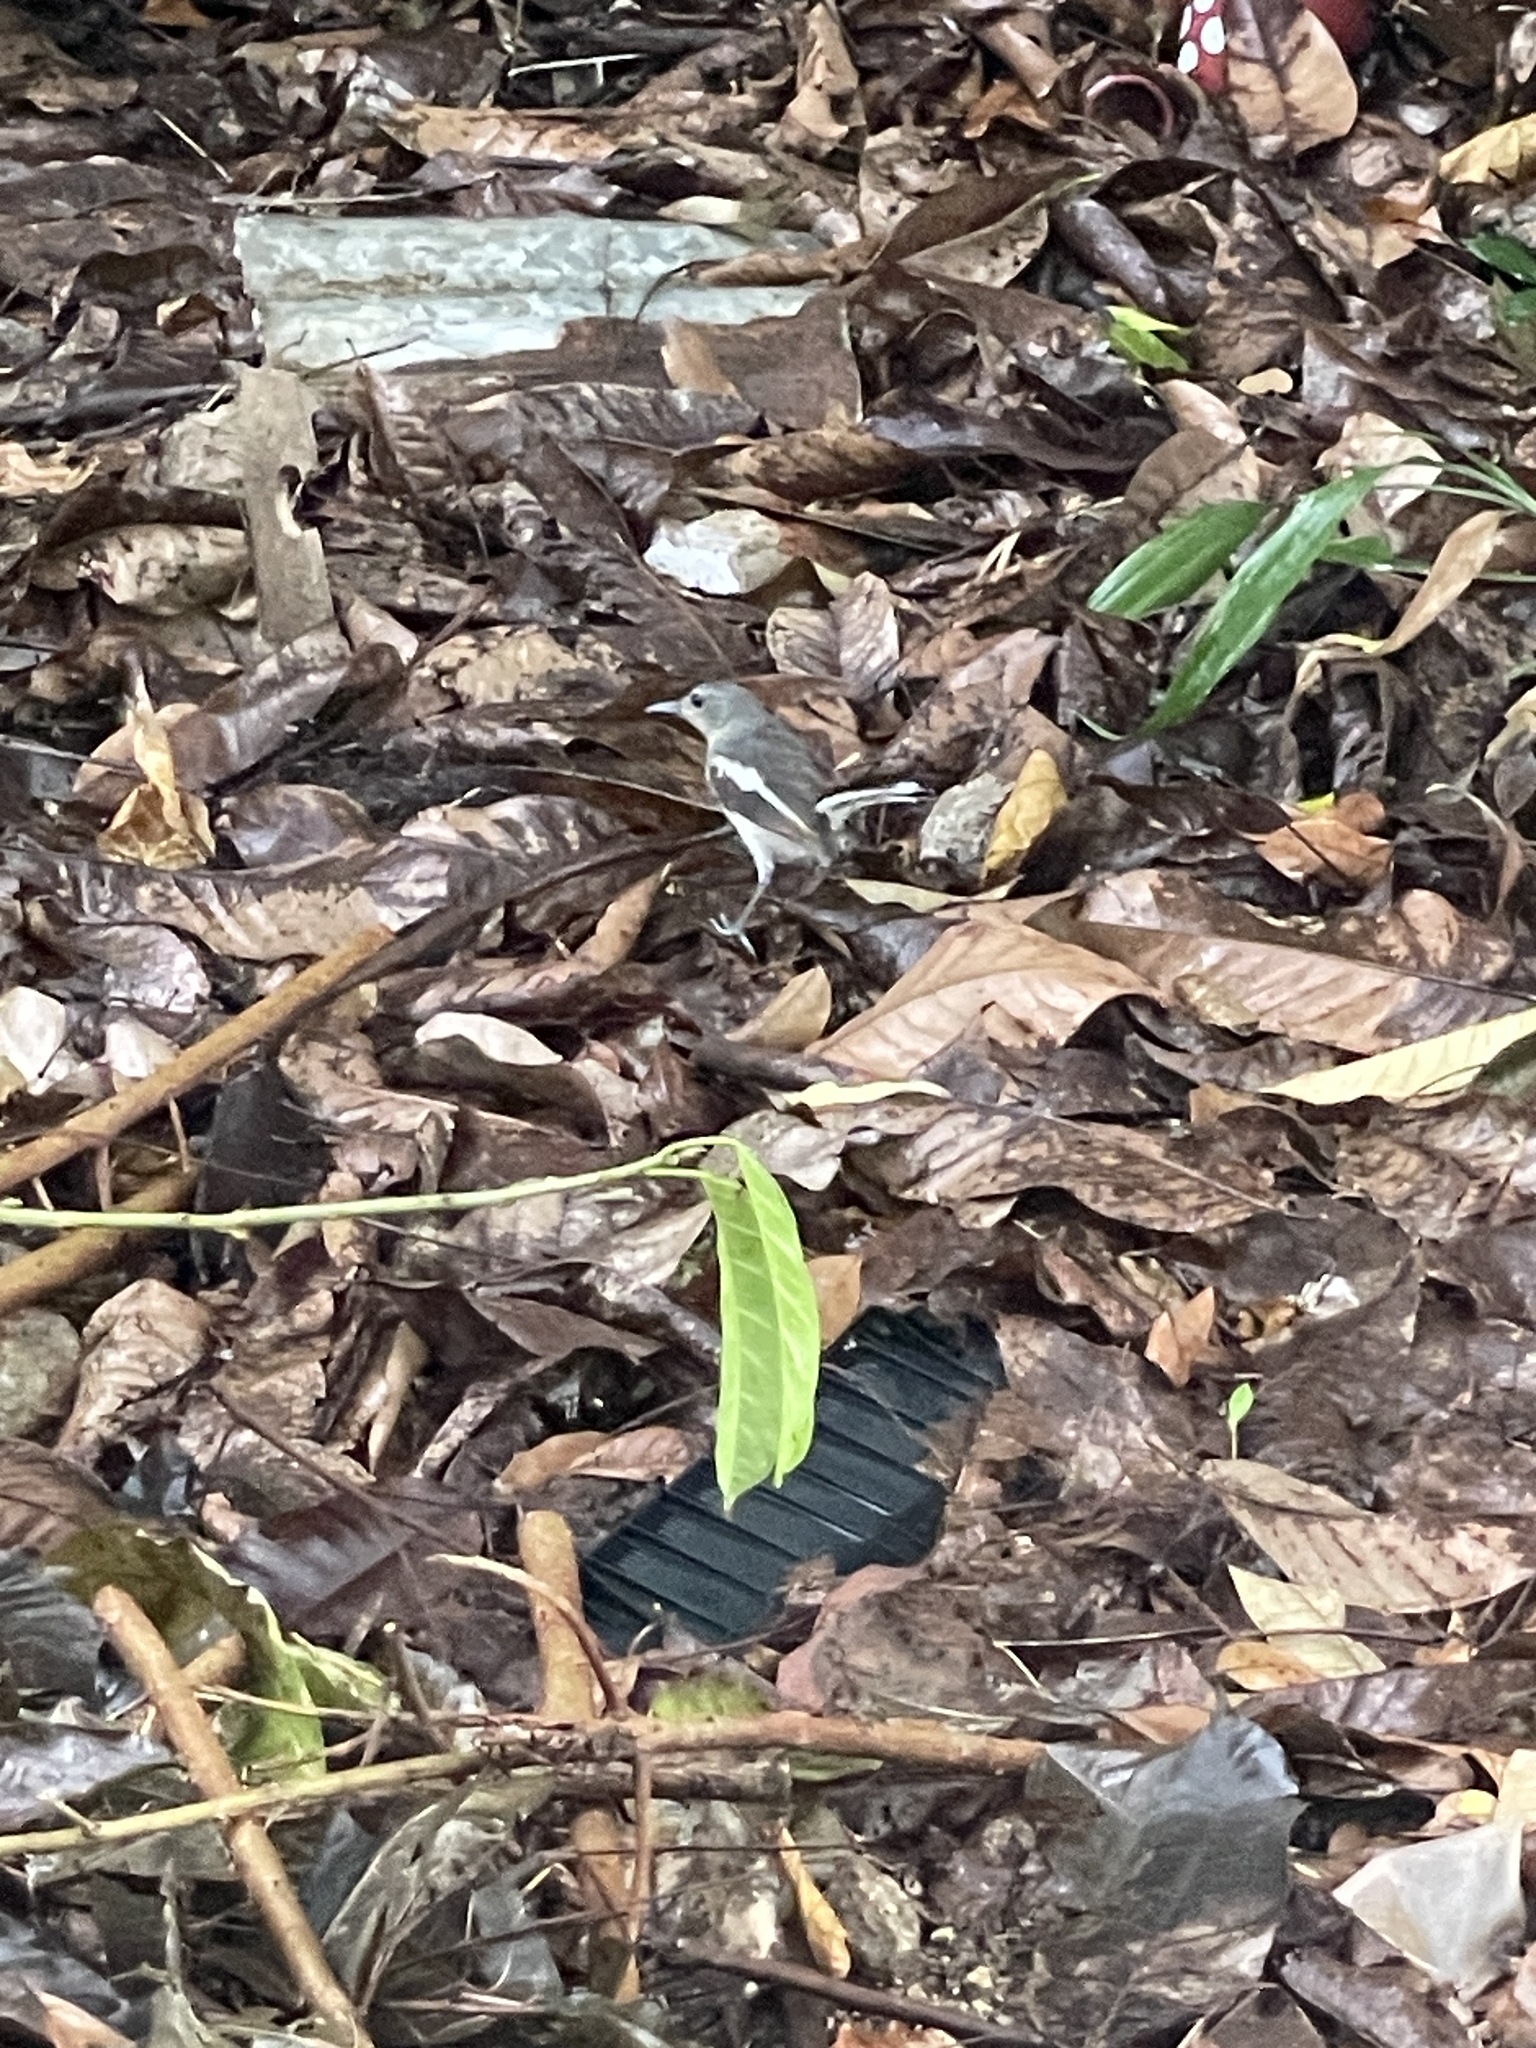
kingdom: Animalia
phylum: Chordata
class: Aves
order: Passeriformes
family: Muscicapidae
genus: Copsychus
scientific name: Copsychus saularis
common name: Oriental magpie-robin
